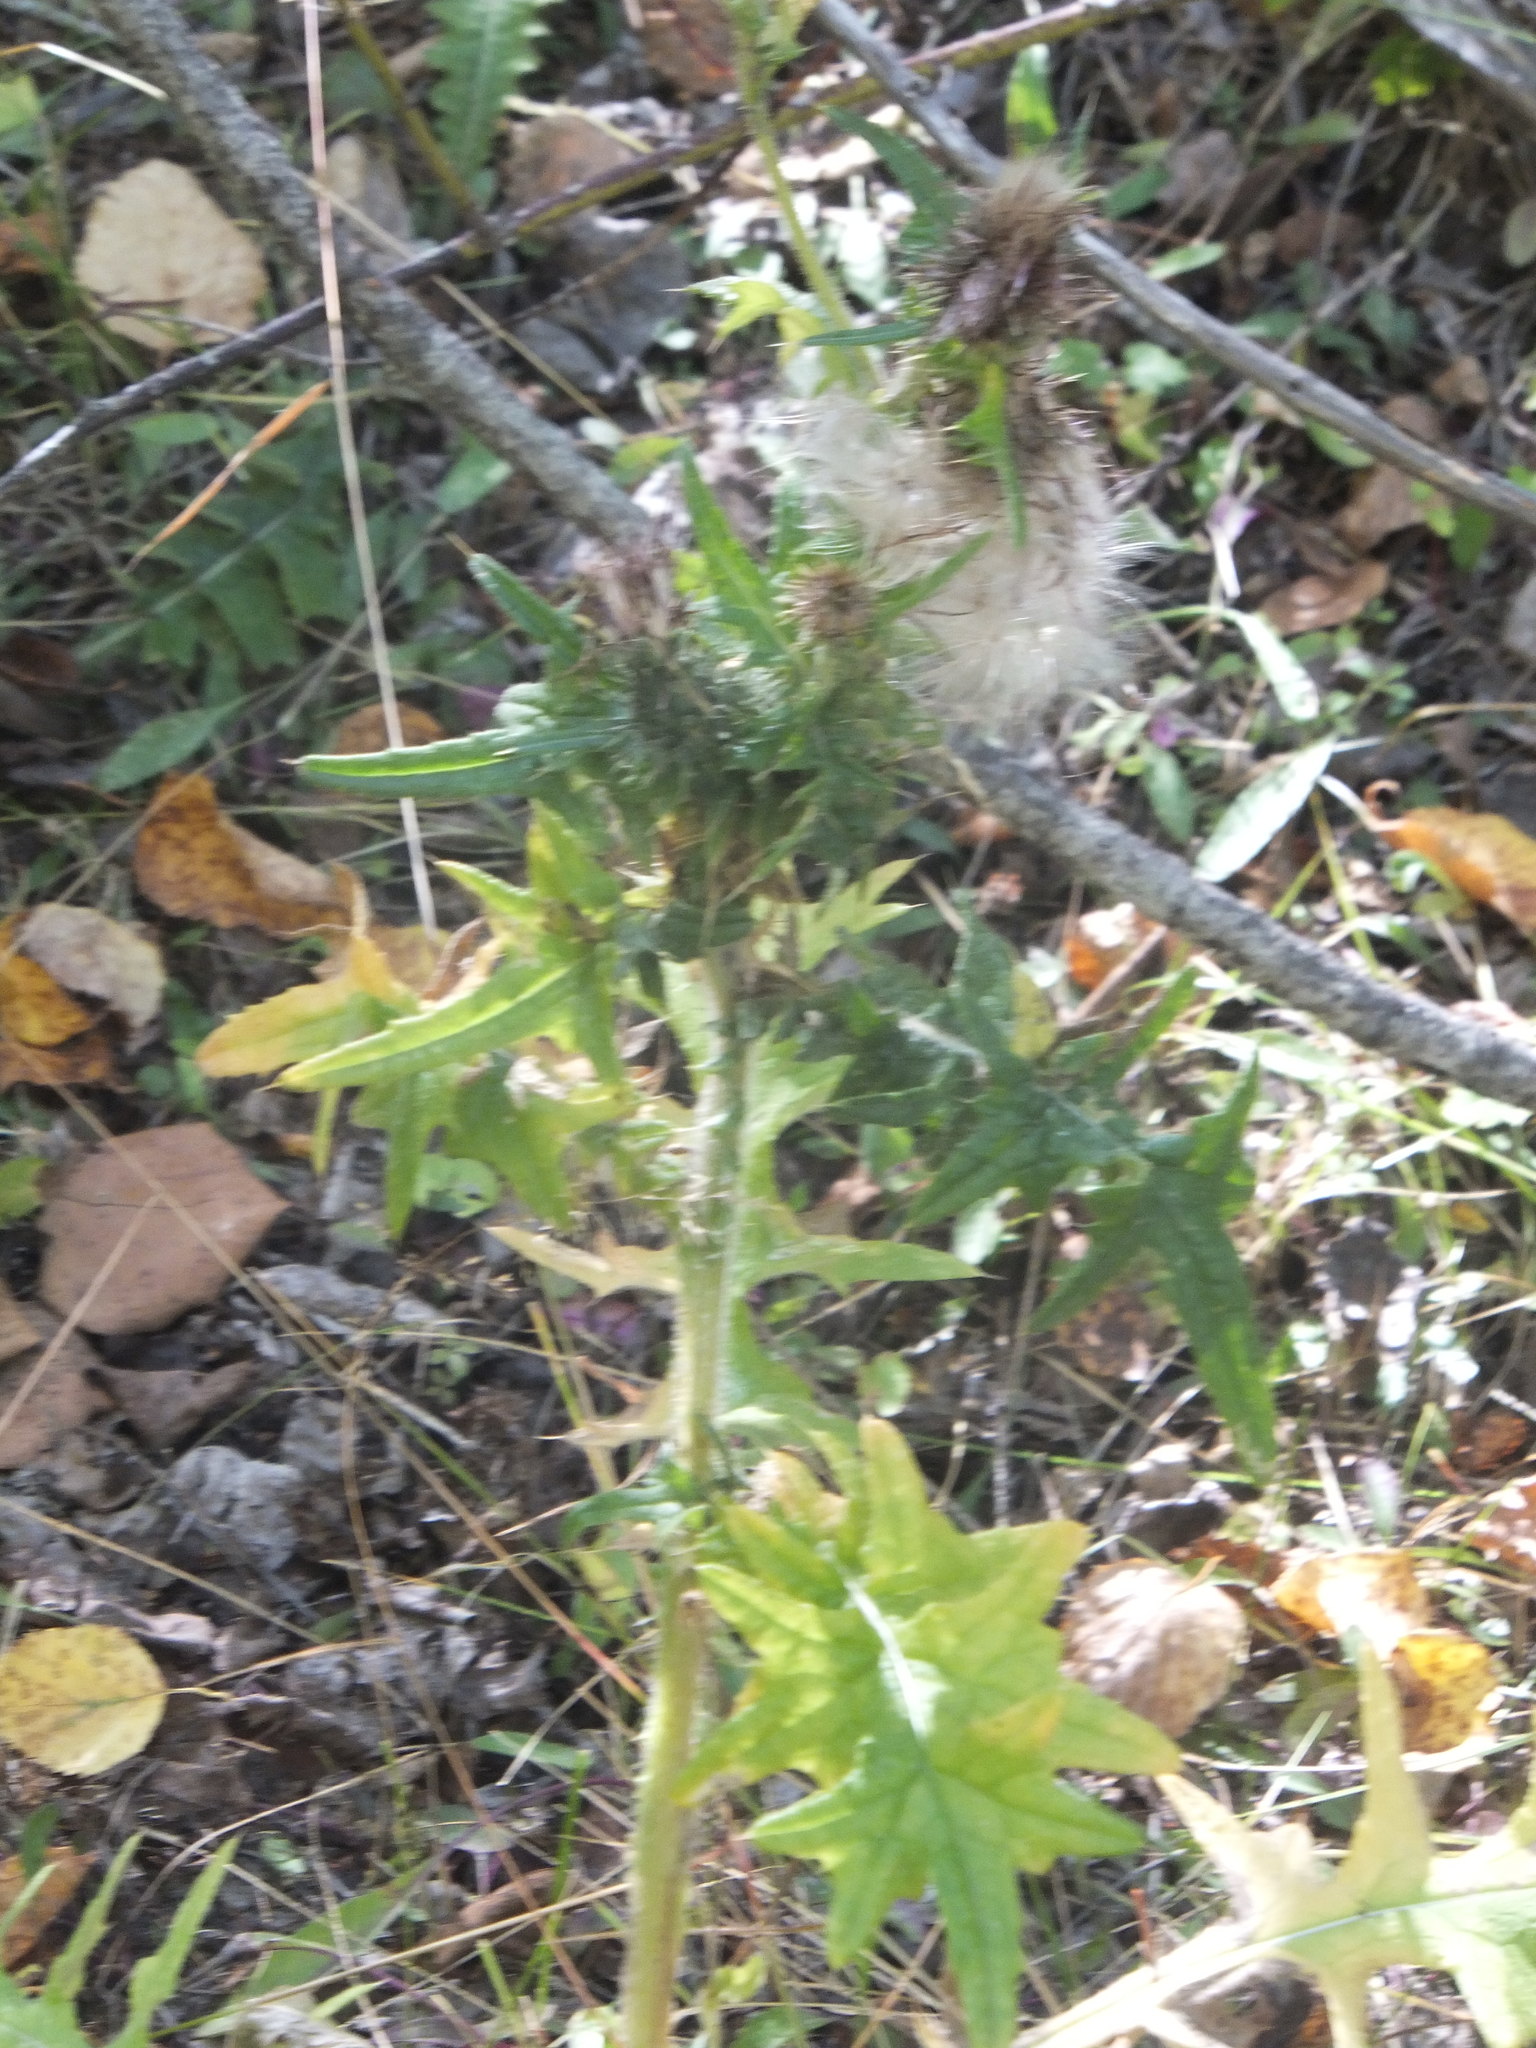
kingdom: Plantae
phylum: Tracheophyta
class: Magnoliopsida
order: Asterales
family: Asteraceae
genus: Cirsium
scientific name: Cirsium vulgare
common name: Bull thistle
